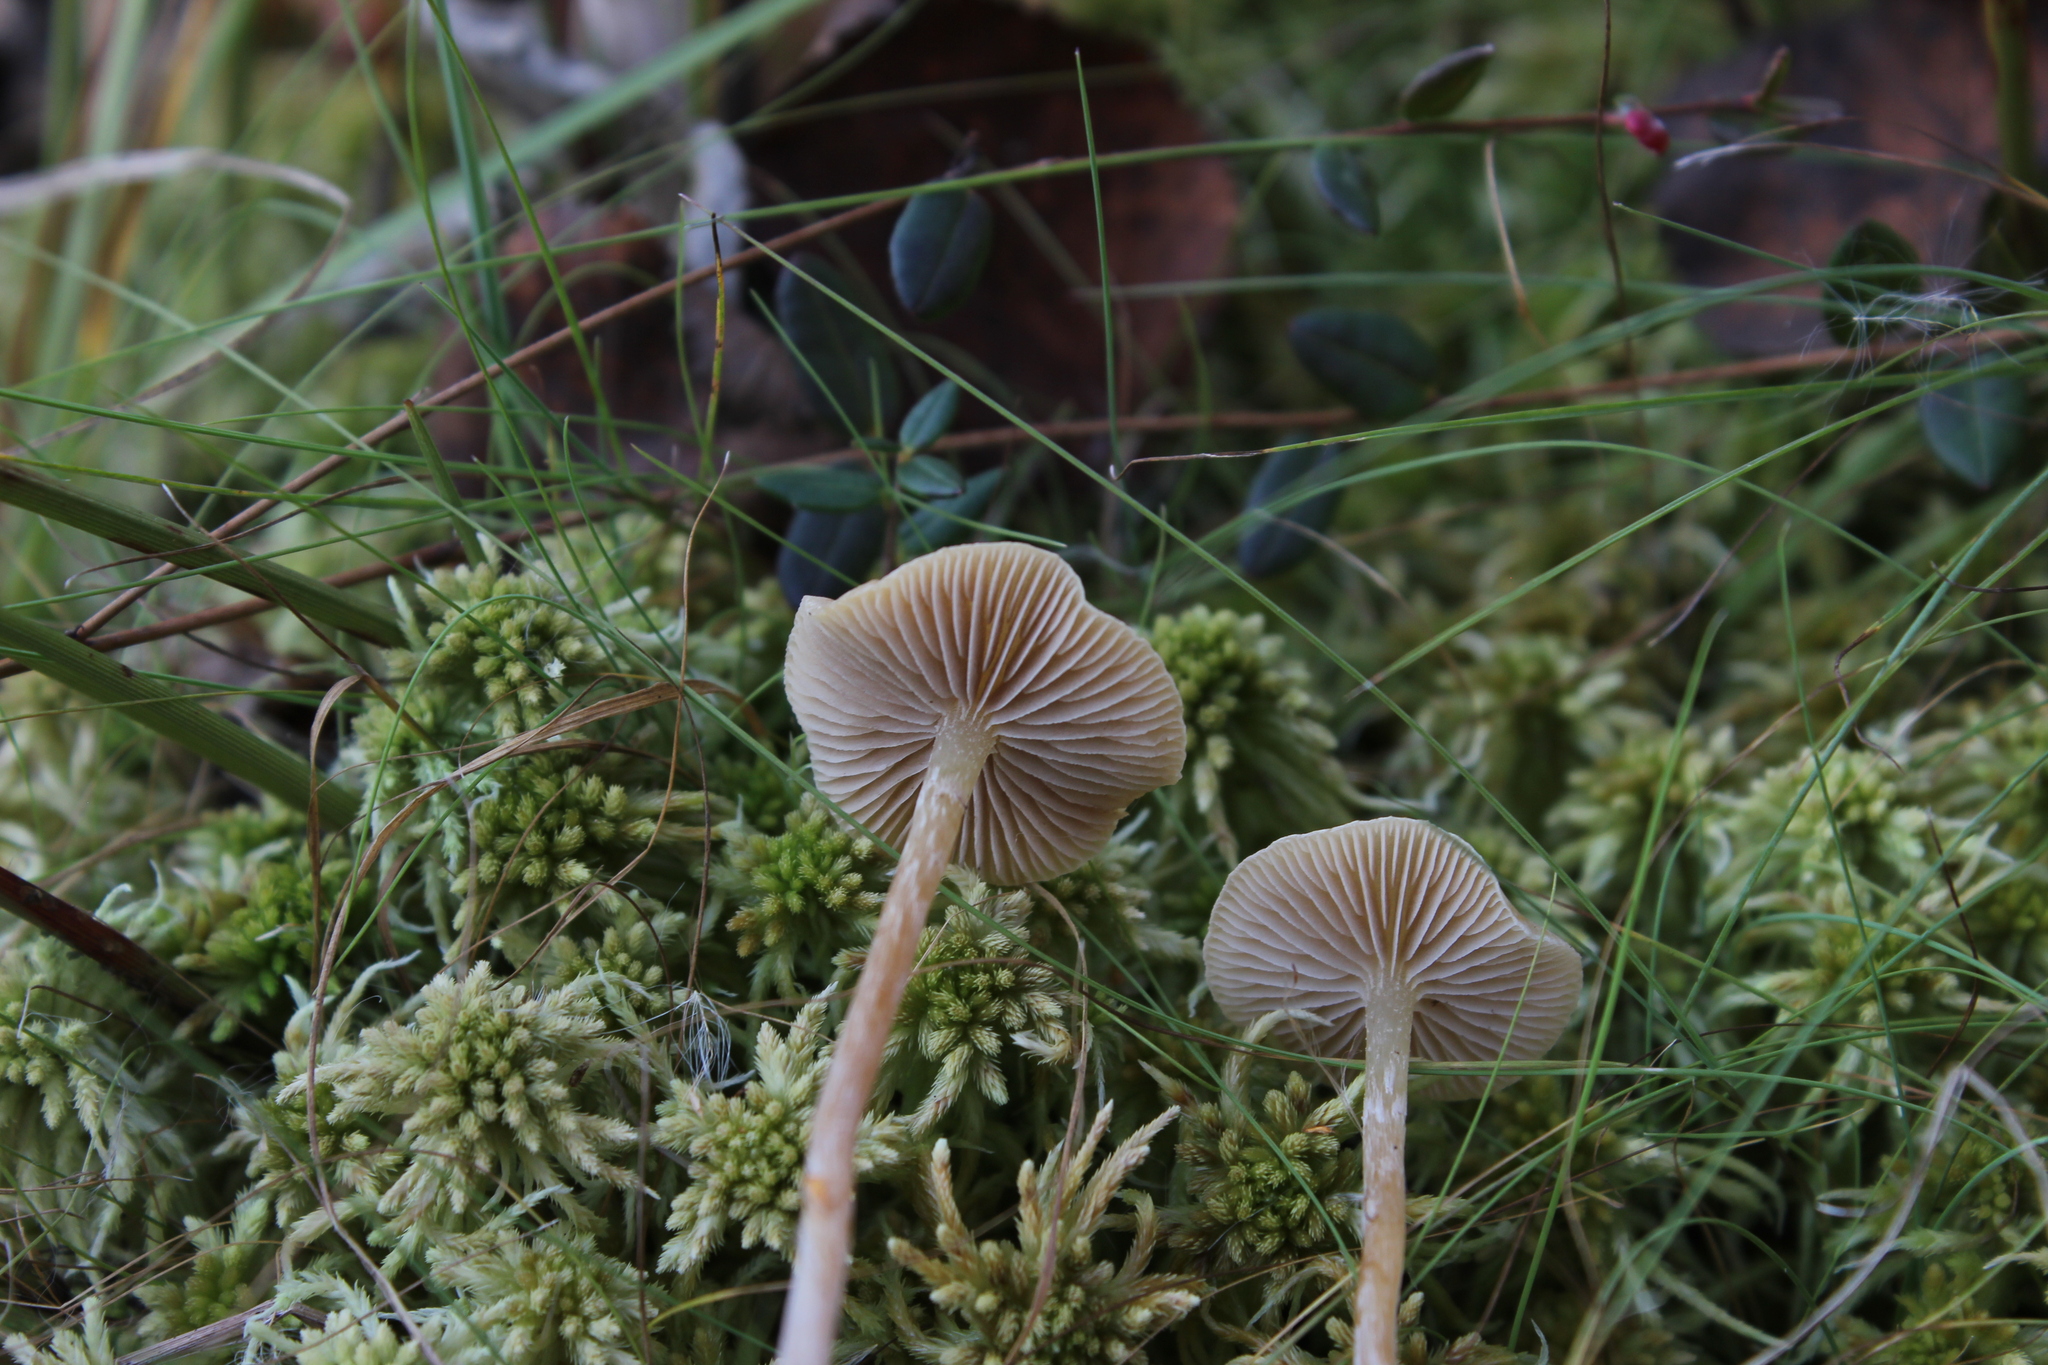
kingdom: Fungi
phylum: Basidiomycota
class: Agaricomycetes
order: Agaricales
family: Strophariaceae
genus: Hypholoma
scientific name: Hypholoma elongatum
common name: Sphagnum brownie
